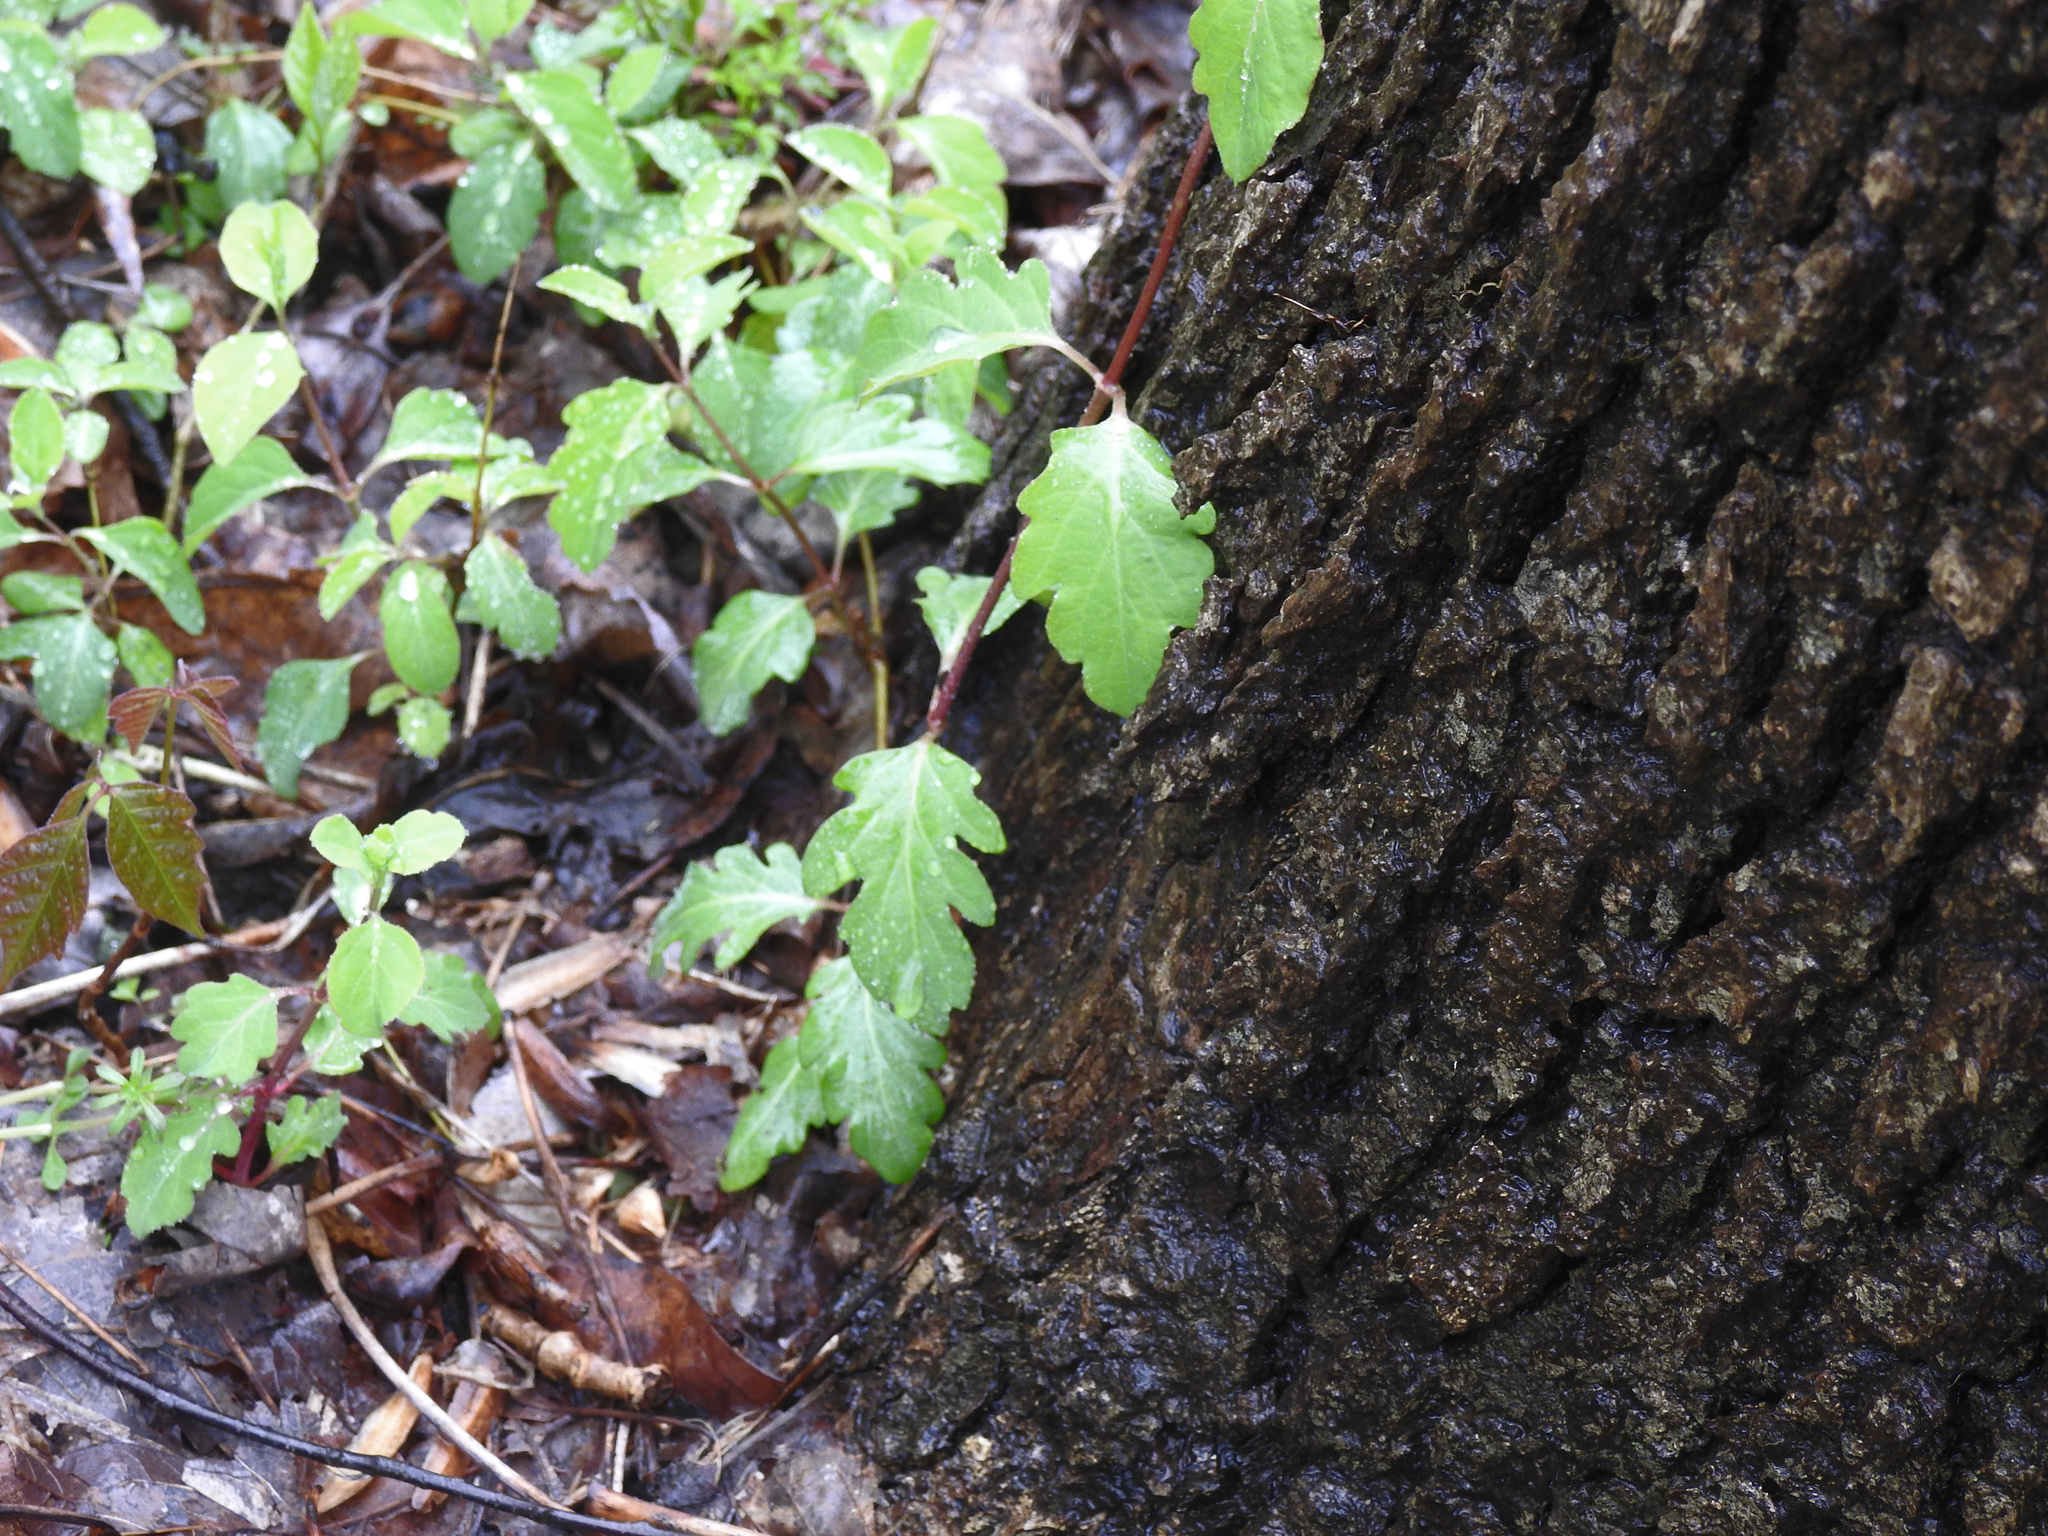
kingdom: Plantae
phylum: Tracheophyta
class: Magnoliopsida
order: Dipsacales
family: Caprifoliaceae
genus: Lonicera
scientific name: Lonicera japonica
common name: Japanese honeysuckle
